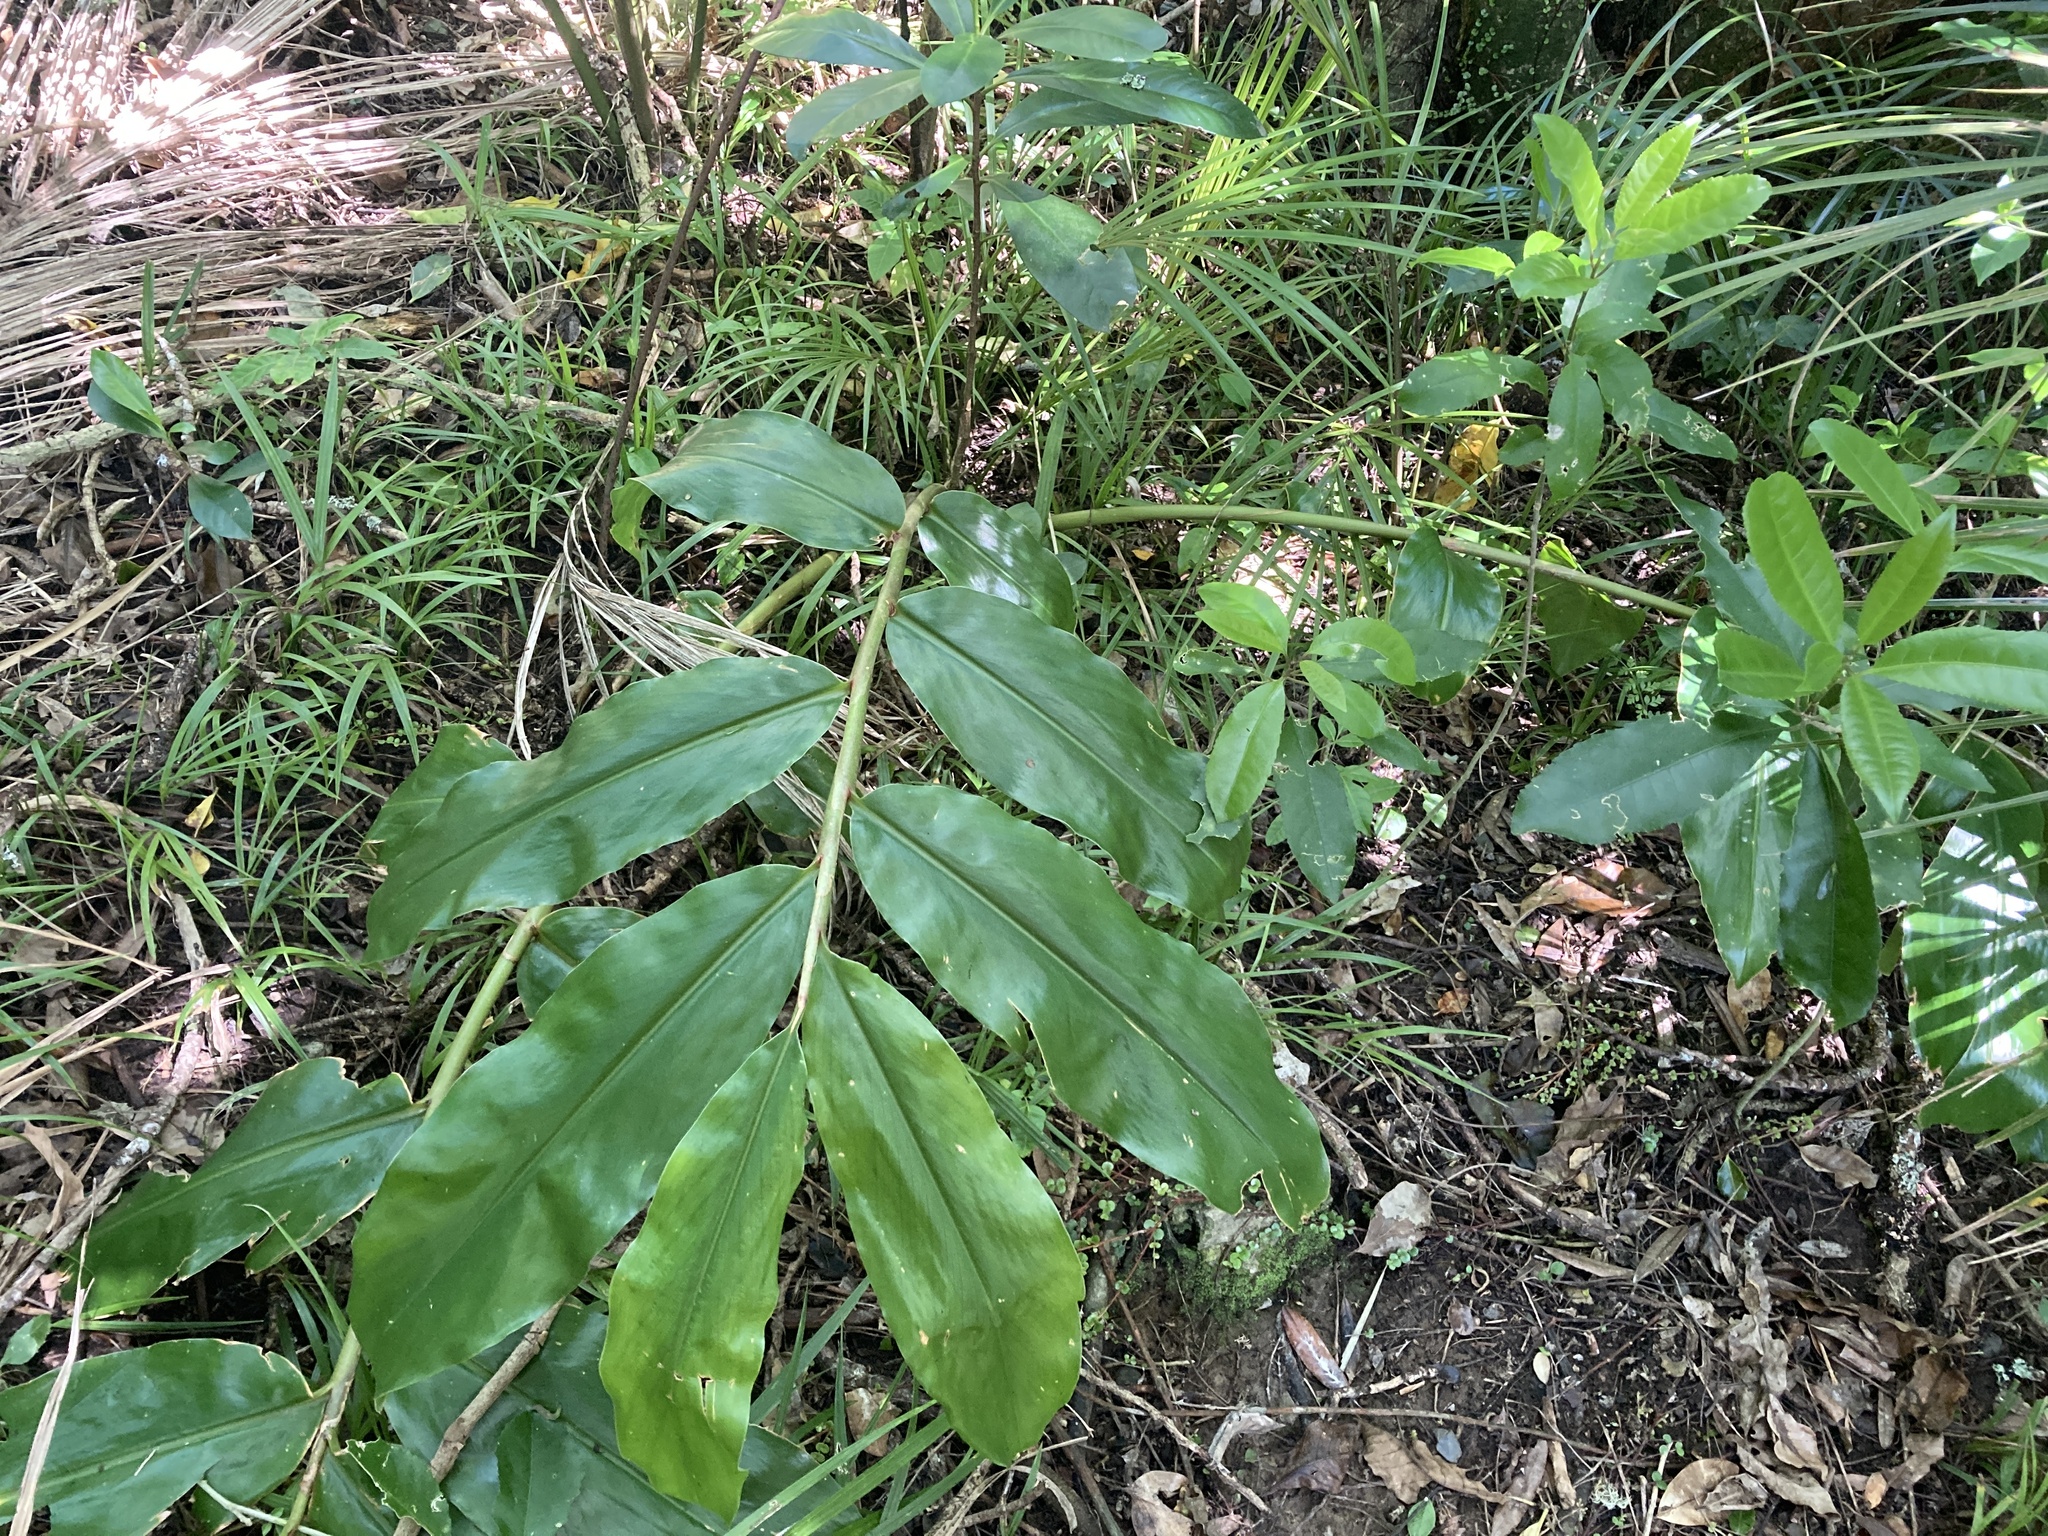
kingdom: Plantae
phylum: Tracheophyta
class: Liliopsida
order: Zingiberales
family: Zingiberaceae
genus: Hedychium
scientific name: Hedychium gardnerianum
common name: Himalayan ginger
